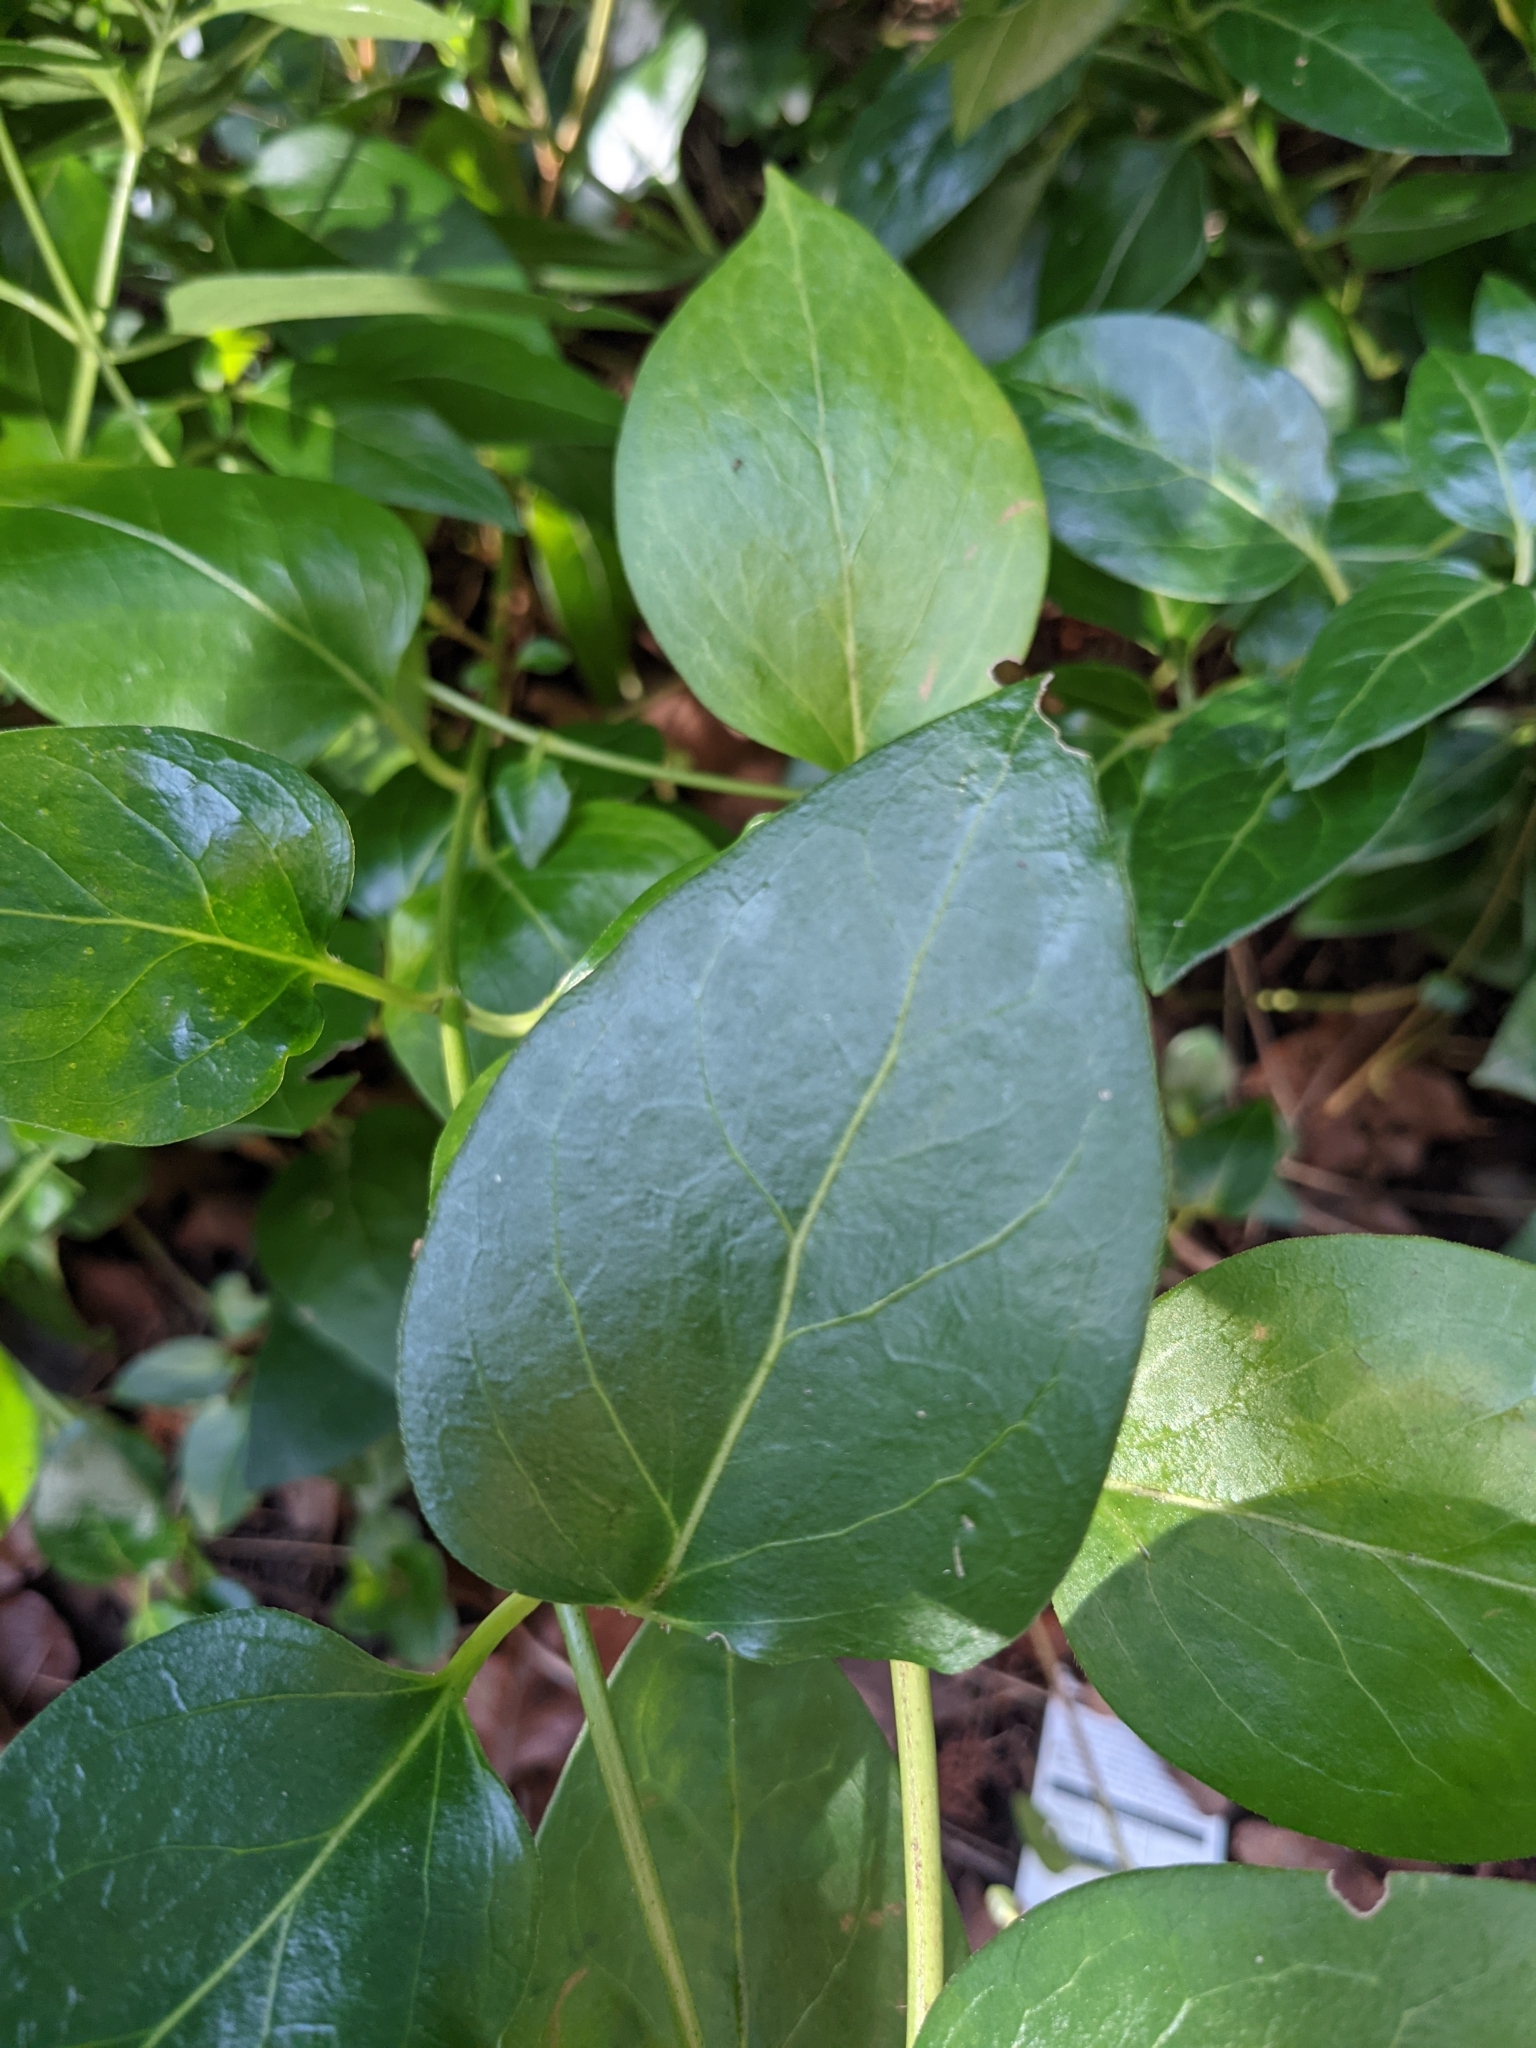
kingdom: Plantae
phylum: Tracheophyta
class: Magnoliopsida
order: Gentianales
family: Apocynaceae
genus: Vinca
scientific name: Vinca major
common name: Greater periwinkle
